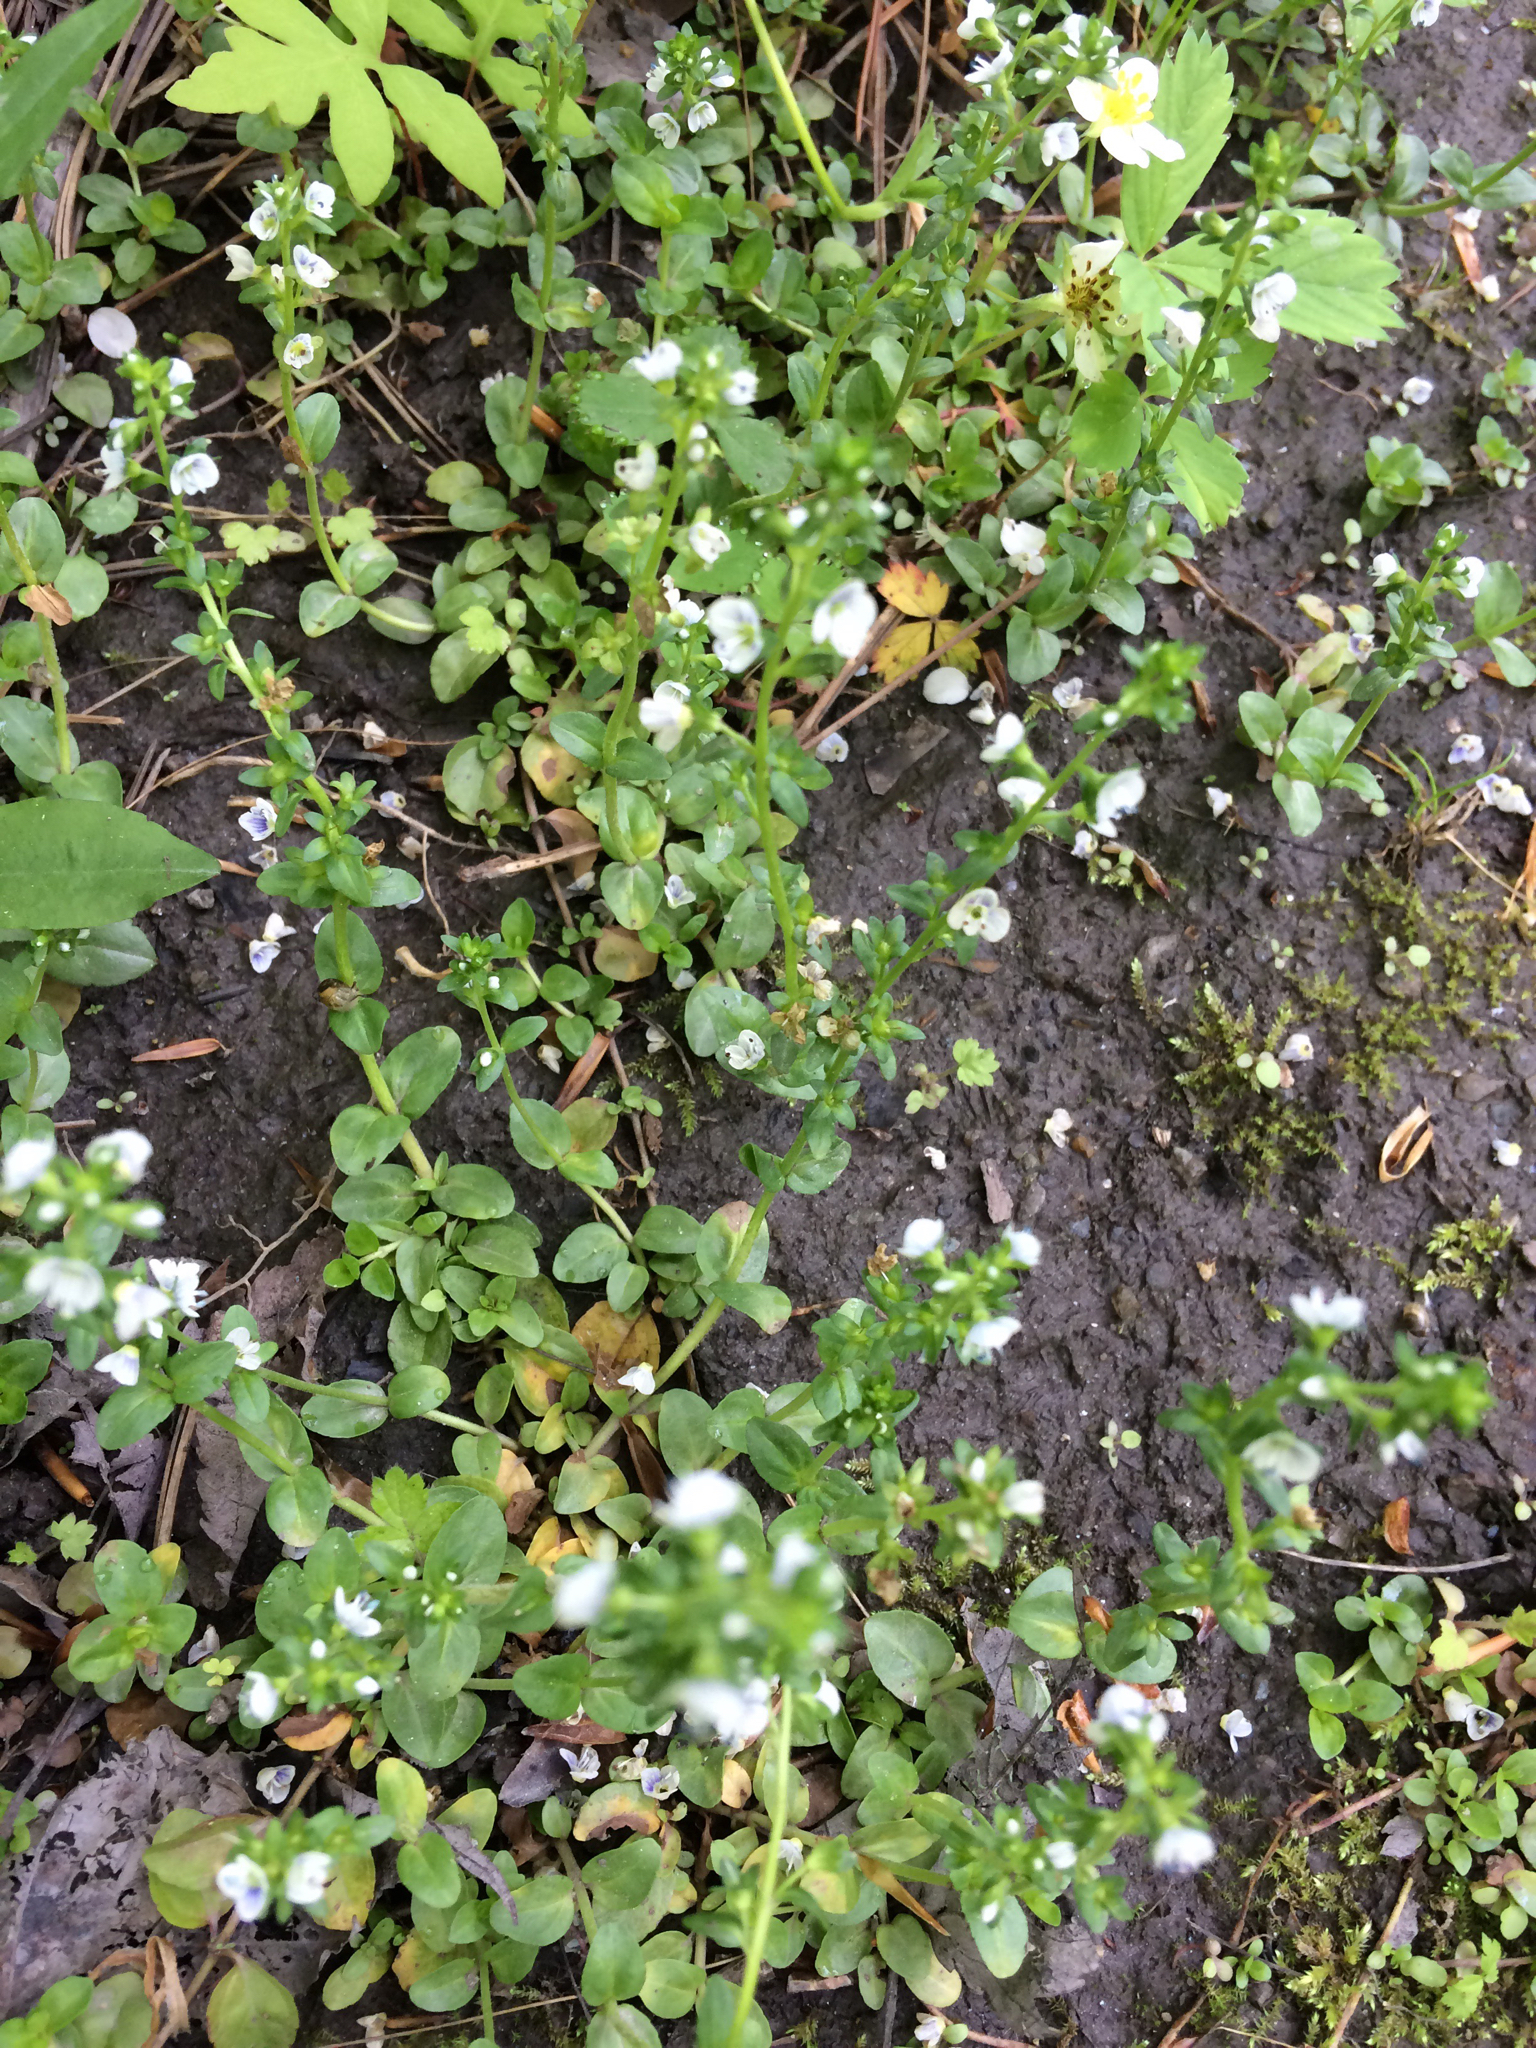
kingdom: Plantae
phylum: Tracheophyta
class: Magnoliopsida
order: Lamiales
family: Plantaginaceae
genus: Veronica
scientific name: Veronica serpyllifolia
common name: Thyme-leaved speedwell
